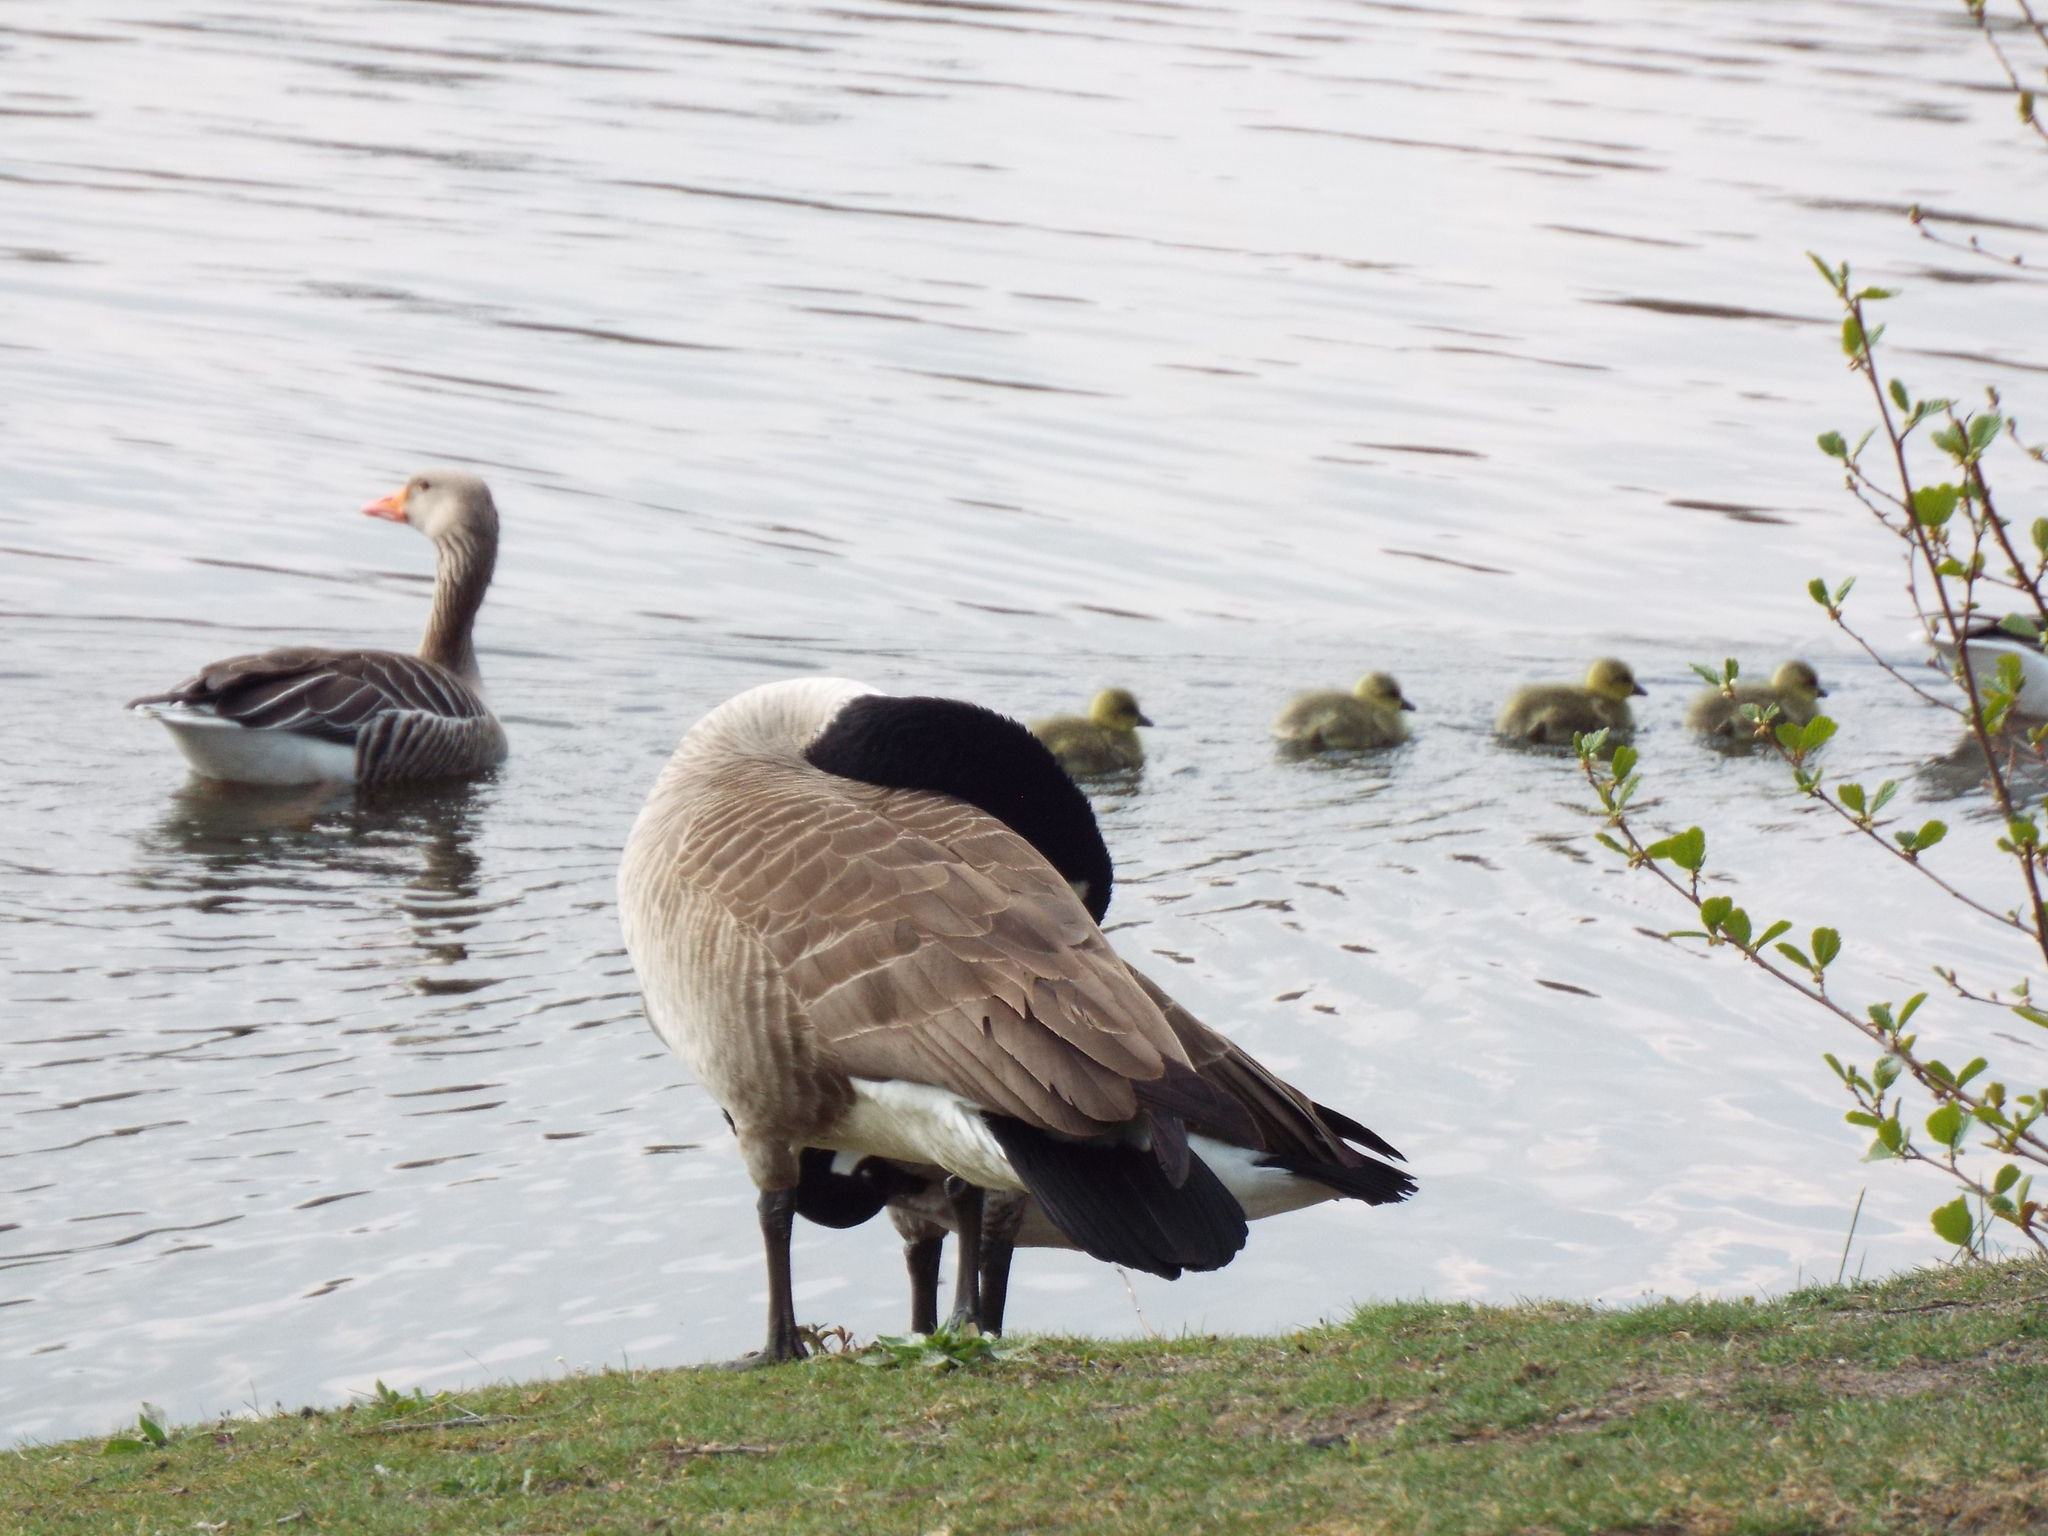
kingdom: Animalia
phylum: Chordata
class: Aves
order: Anseriformes
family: Anatidae
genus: Branta
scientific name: Branta canadensis
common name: Canada goose
